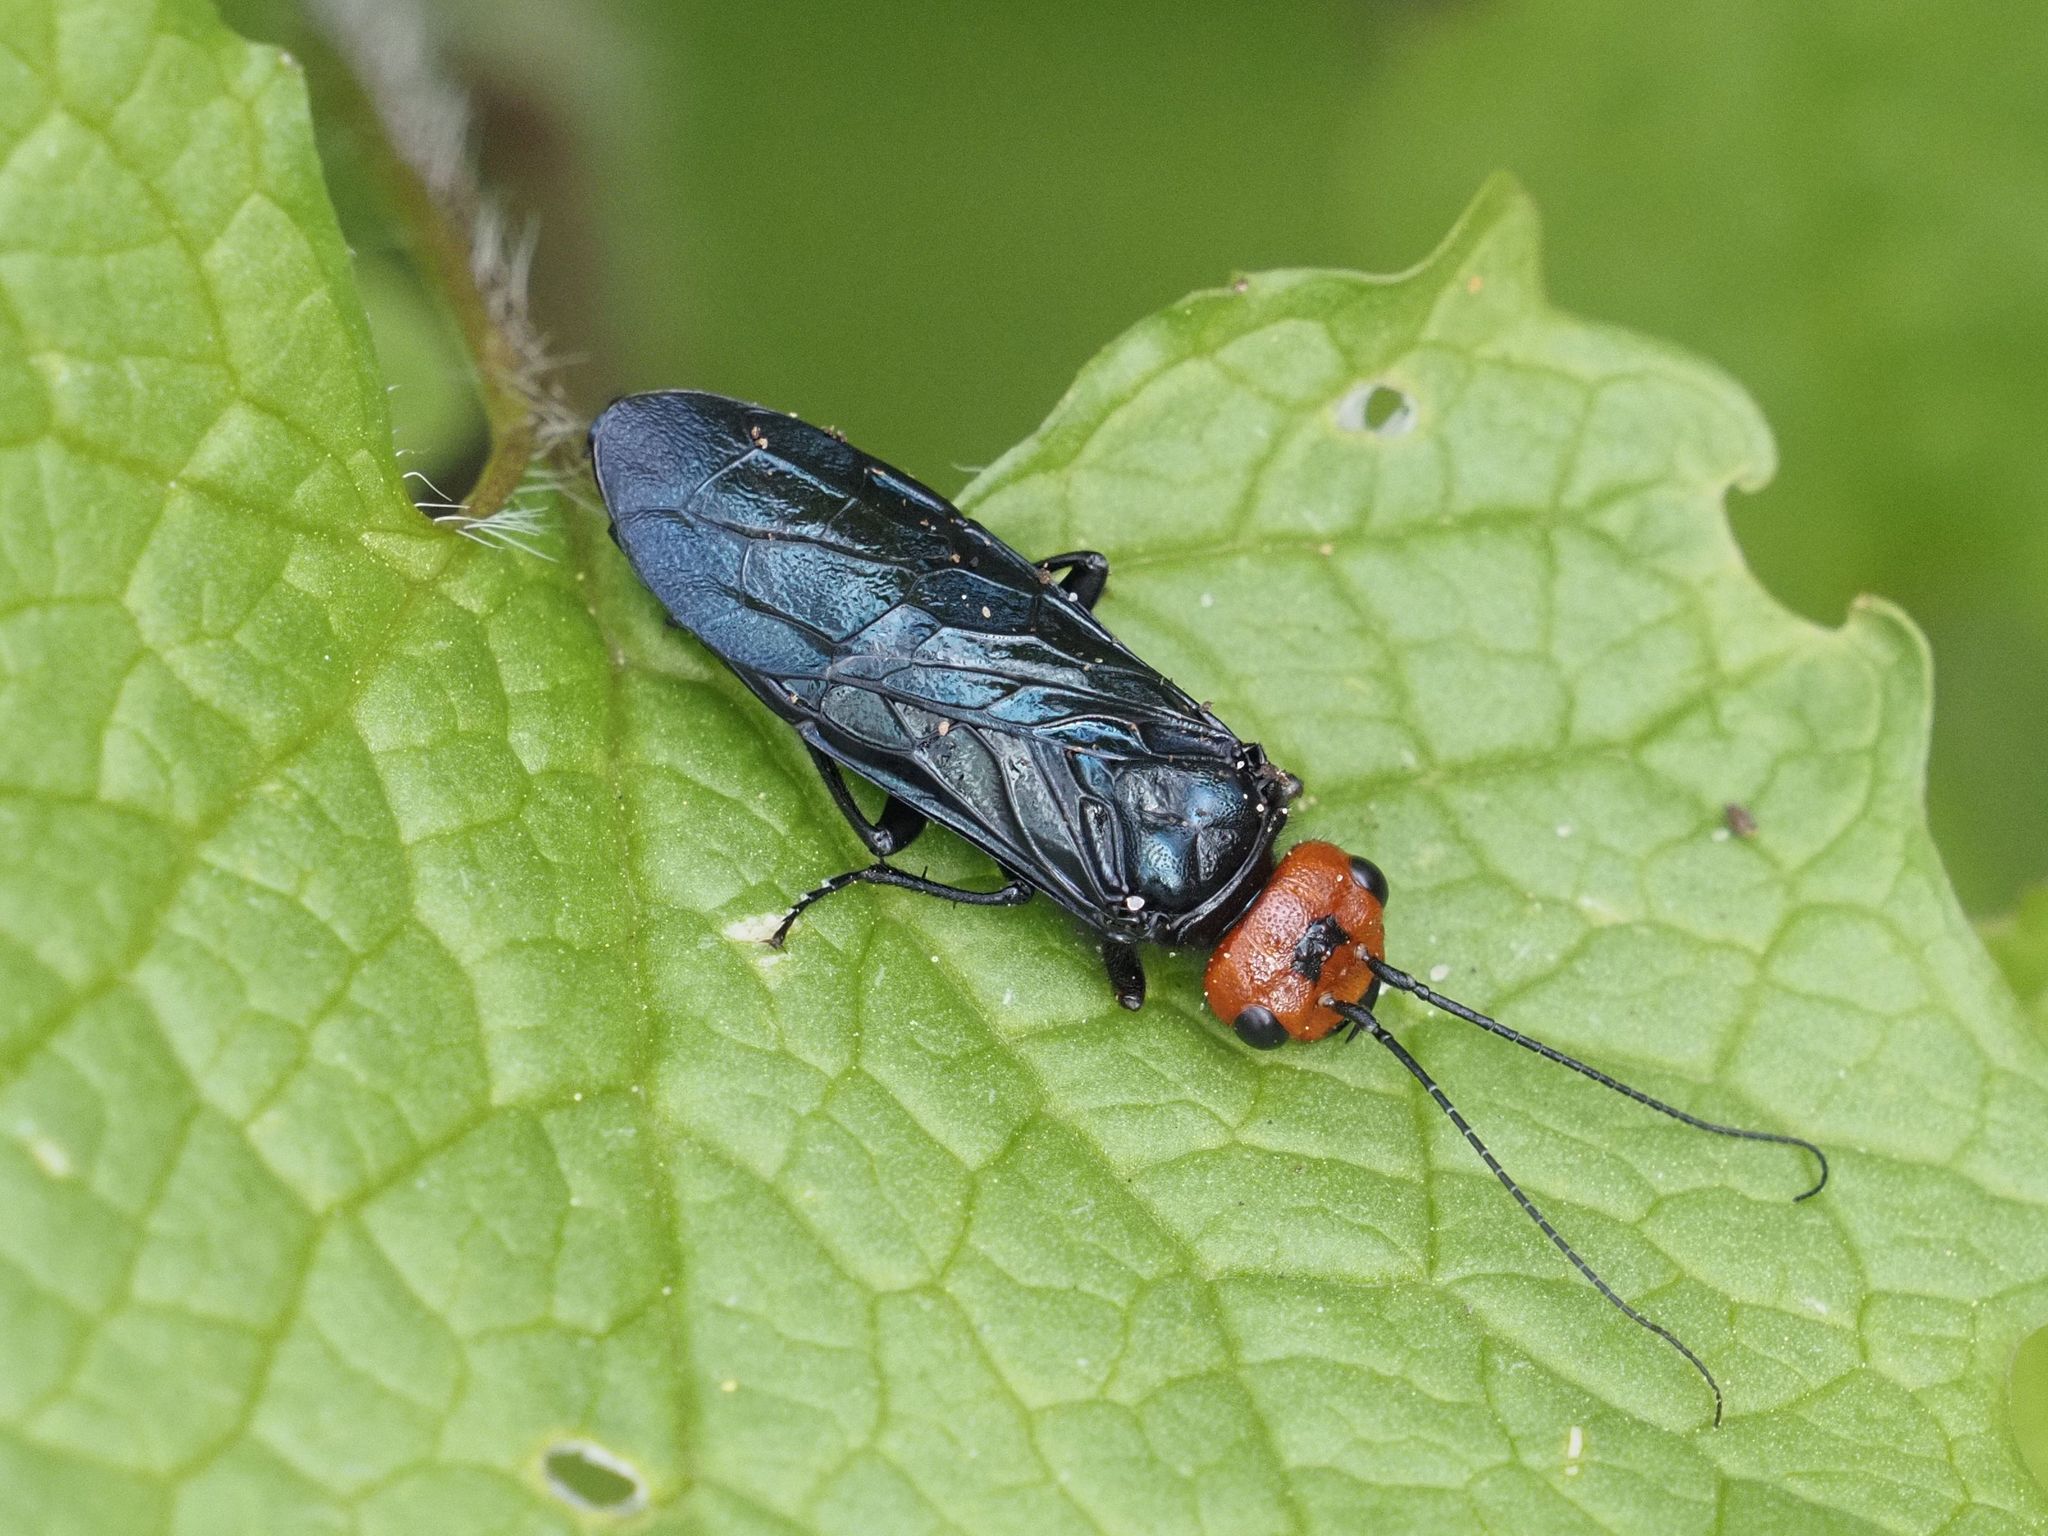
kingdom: Animalia
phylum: Arthropoda
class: Insecta
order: Hymenoptera
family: Pamphiliidae
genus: Acantholyda
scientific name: Acantholyda erythrocephala
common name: Pine false webworm
